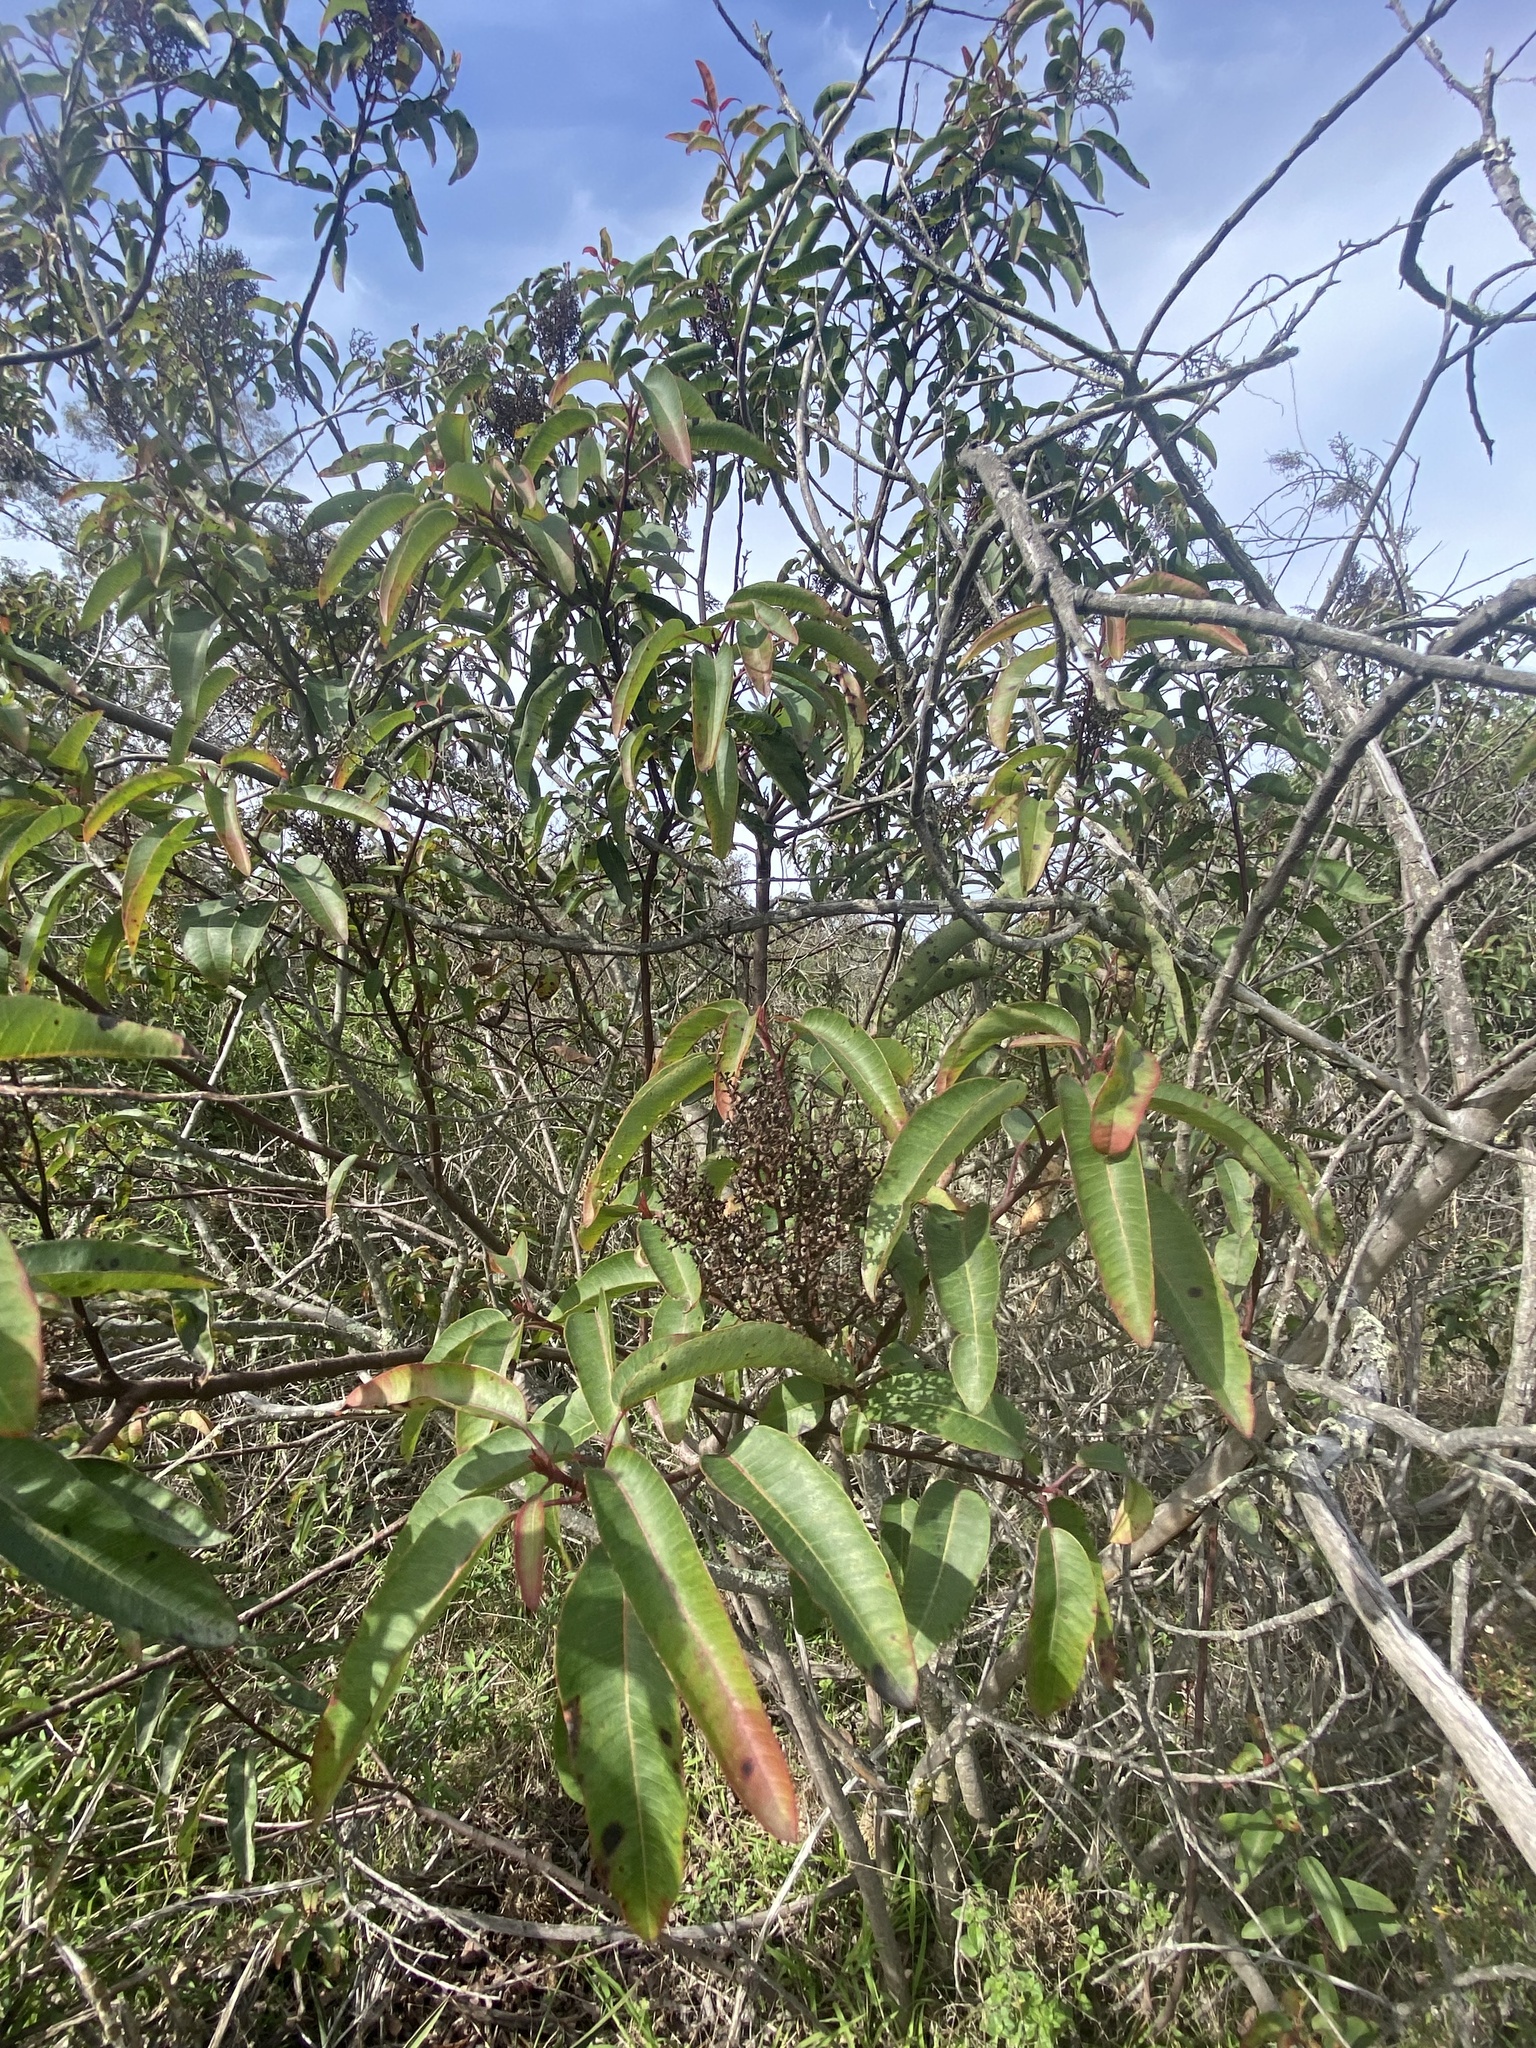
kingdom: Plantae
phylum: Tracheophyta
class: Magnoliopsida
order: Sapindales
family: Anacardiaceae
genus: Malosma
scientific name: Malosma laurina
